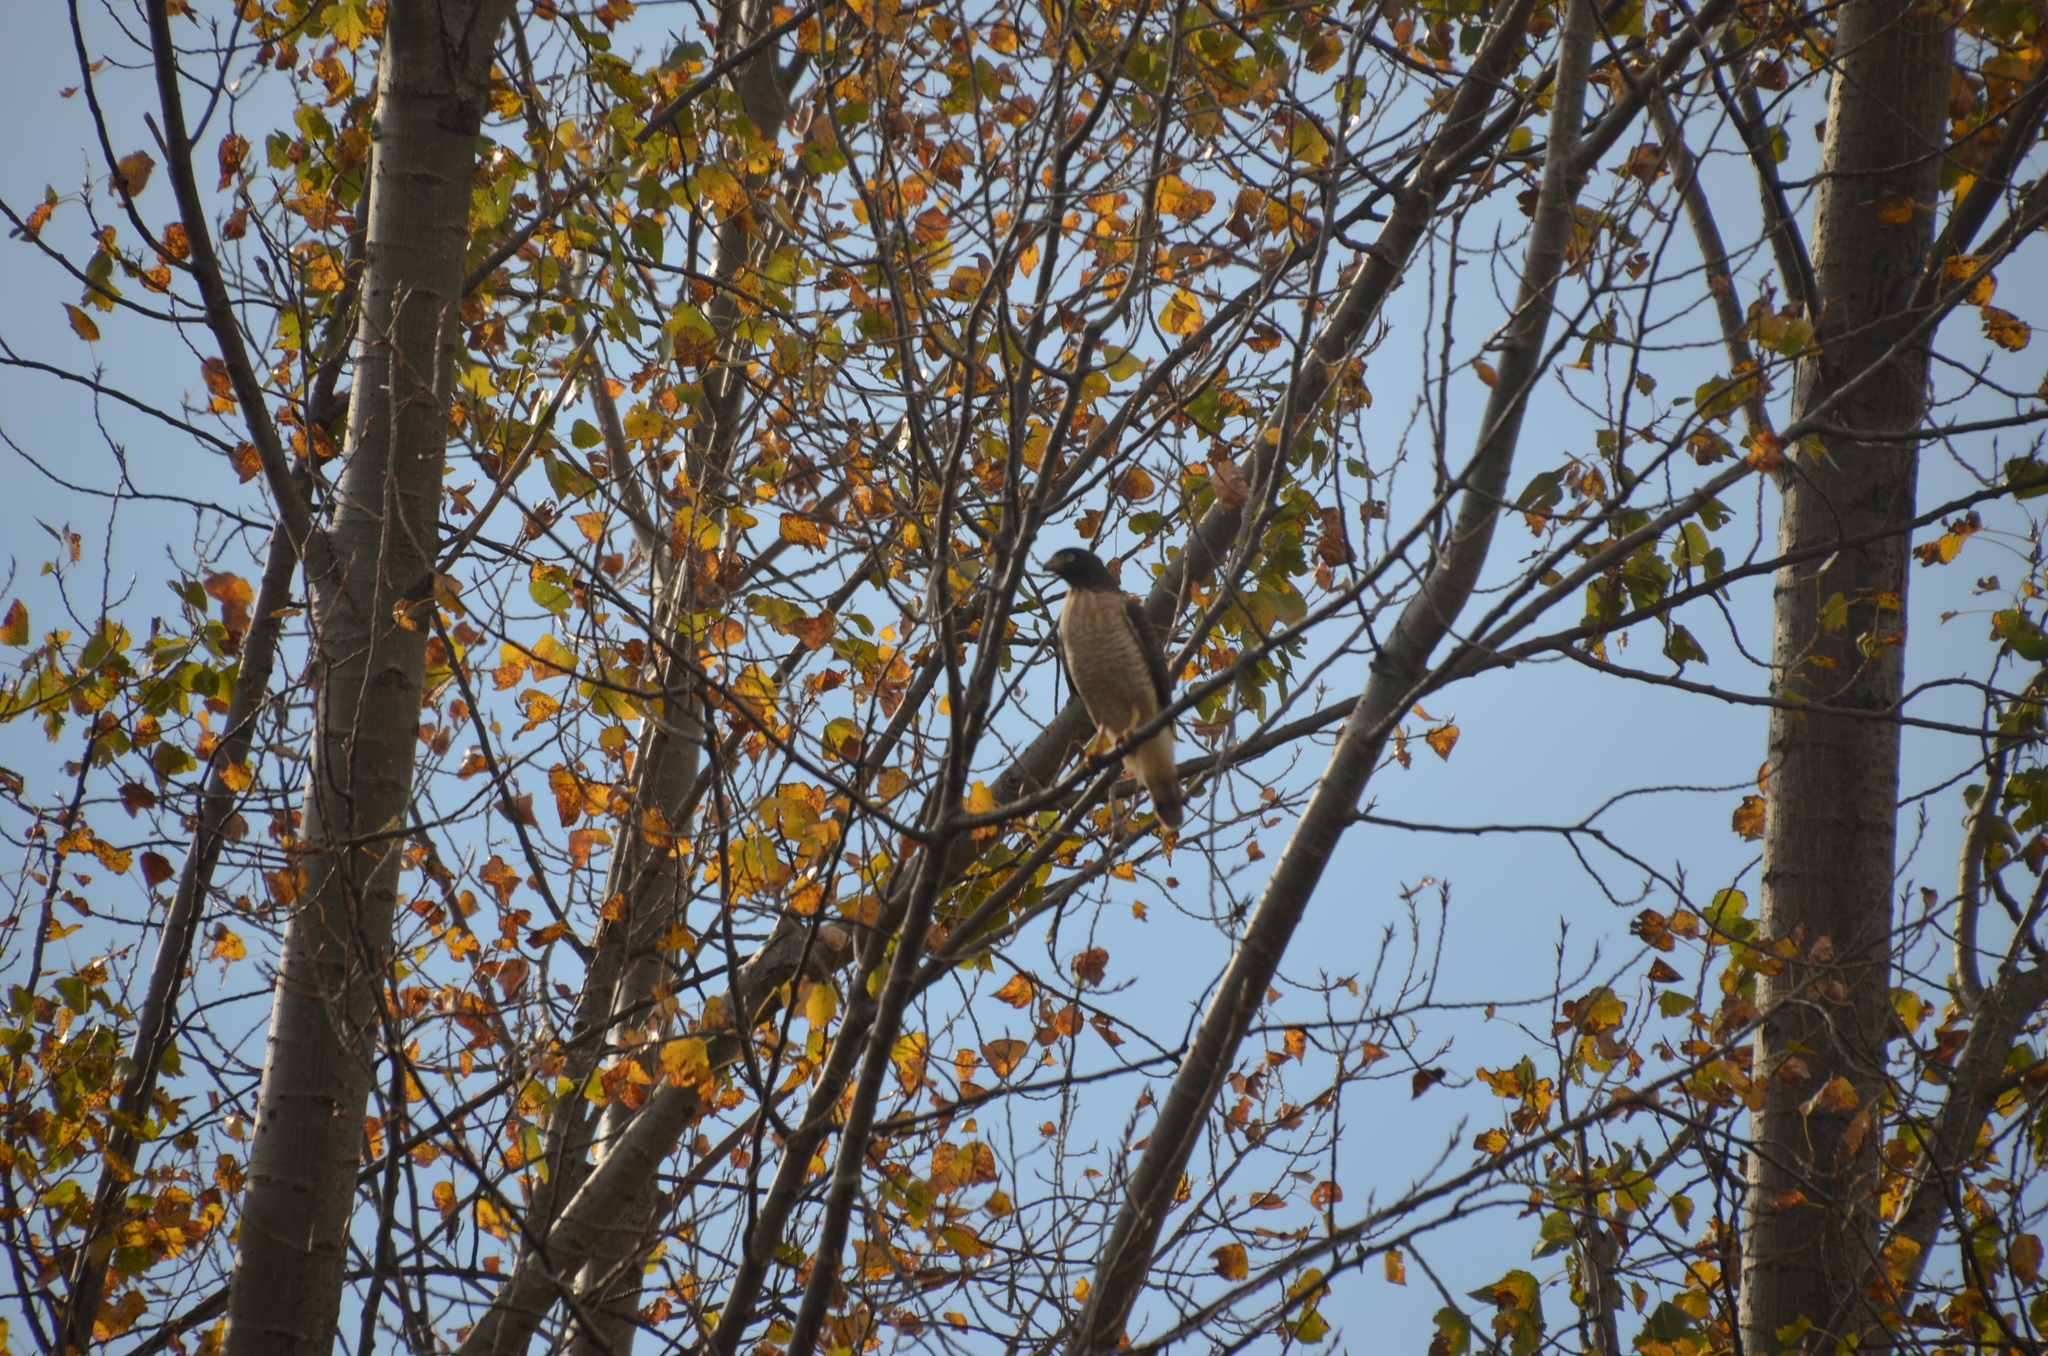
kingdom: Animalia
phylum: Chordata
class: Aves
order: Accipitriformes
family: Accipitridae
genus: Rupornis
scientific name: Rupornis magnirostris
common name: Roadside hawk
